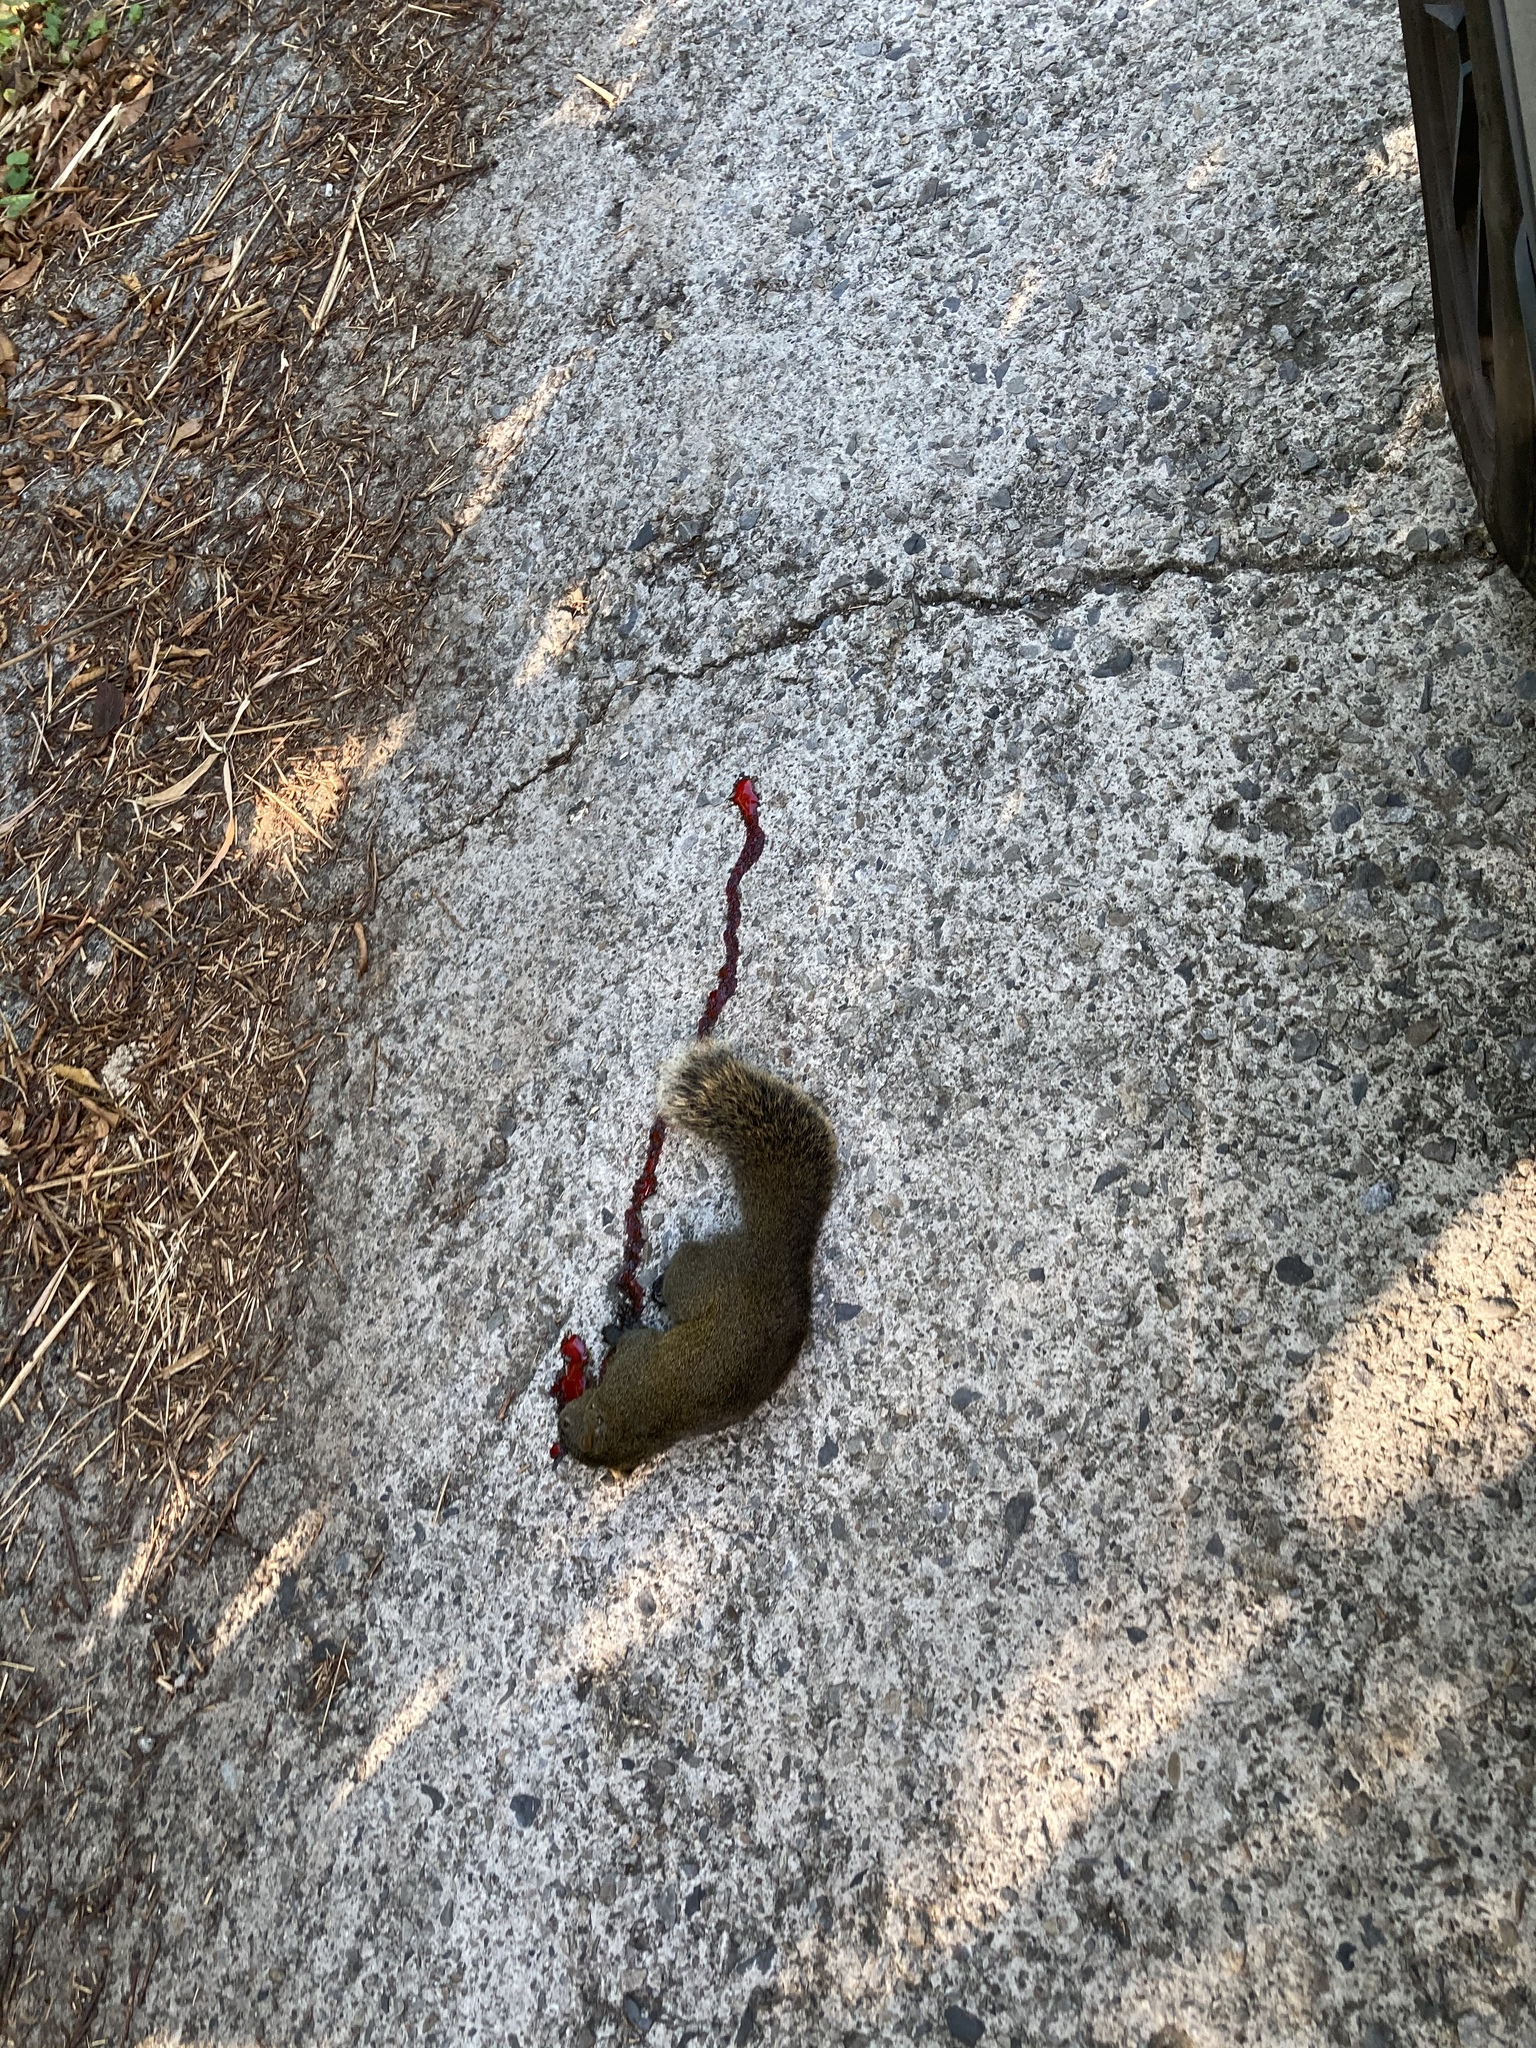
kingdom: Animalia
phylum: Chordata
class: Mammalia
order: Rodentia
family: Sciuridae
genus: Callosciurus
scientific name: Callosciurus erythraeus
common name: Pallas's squirrel
